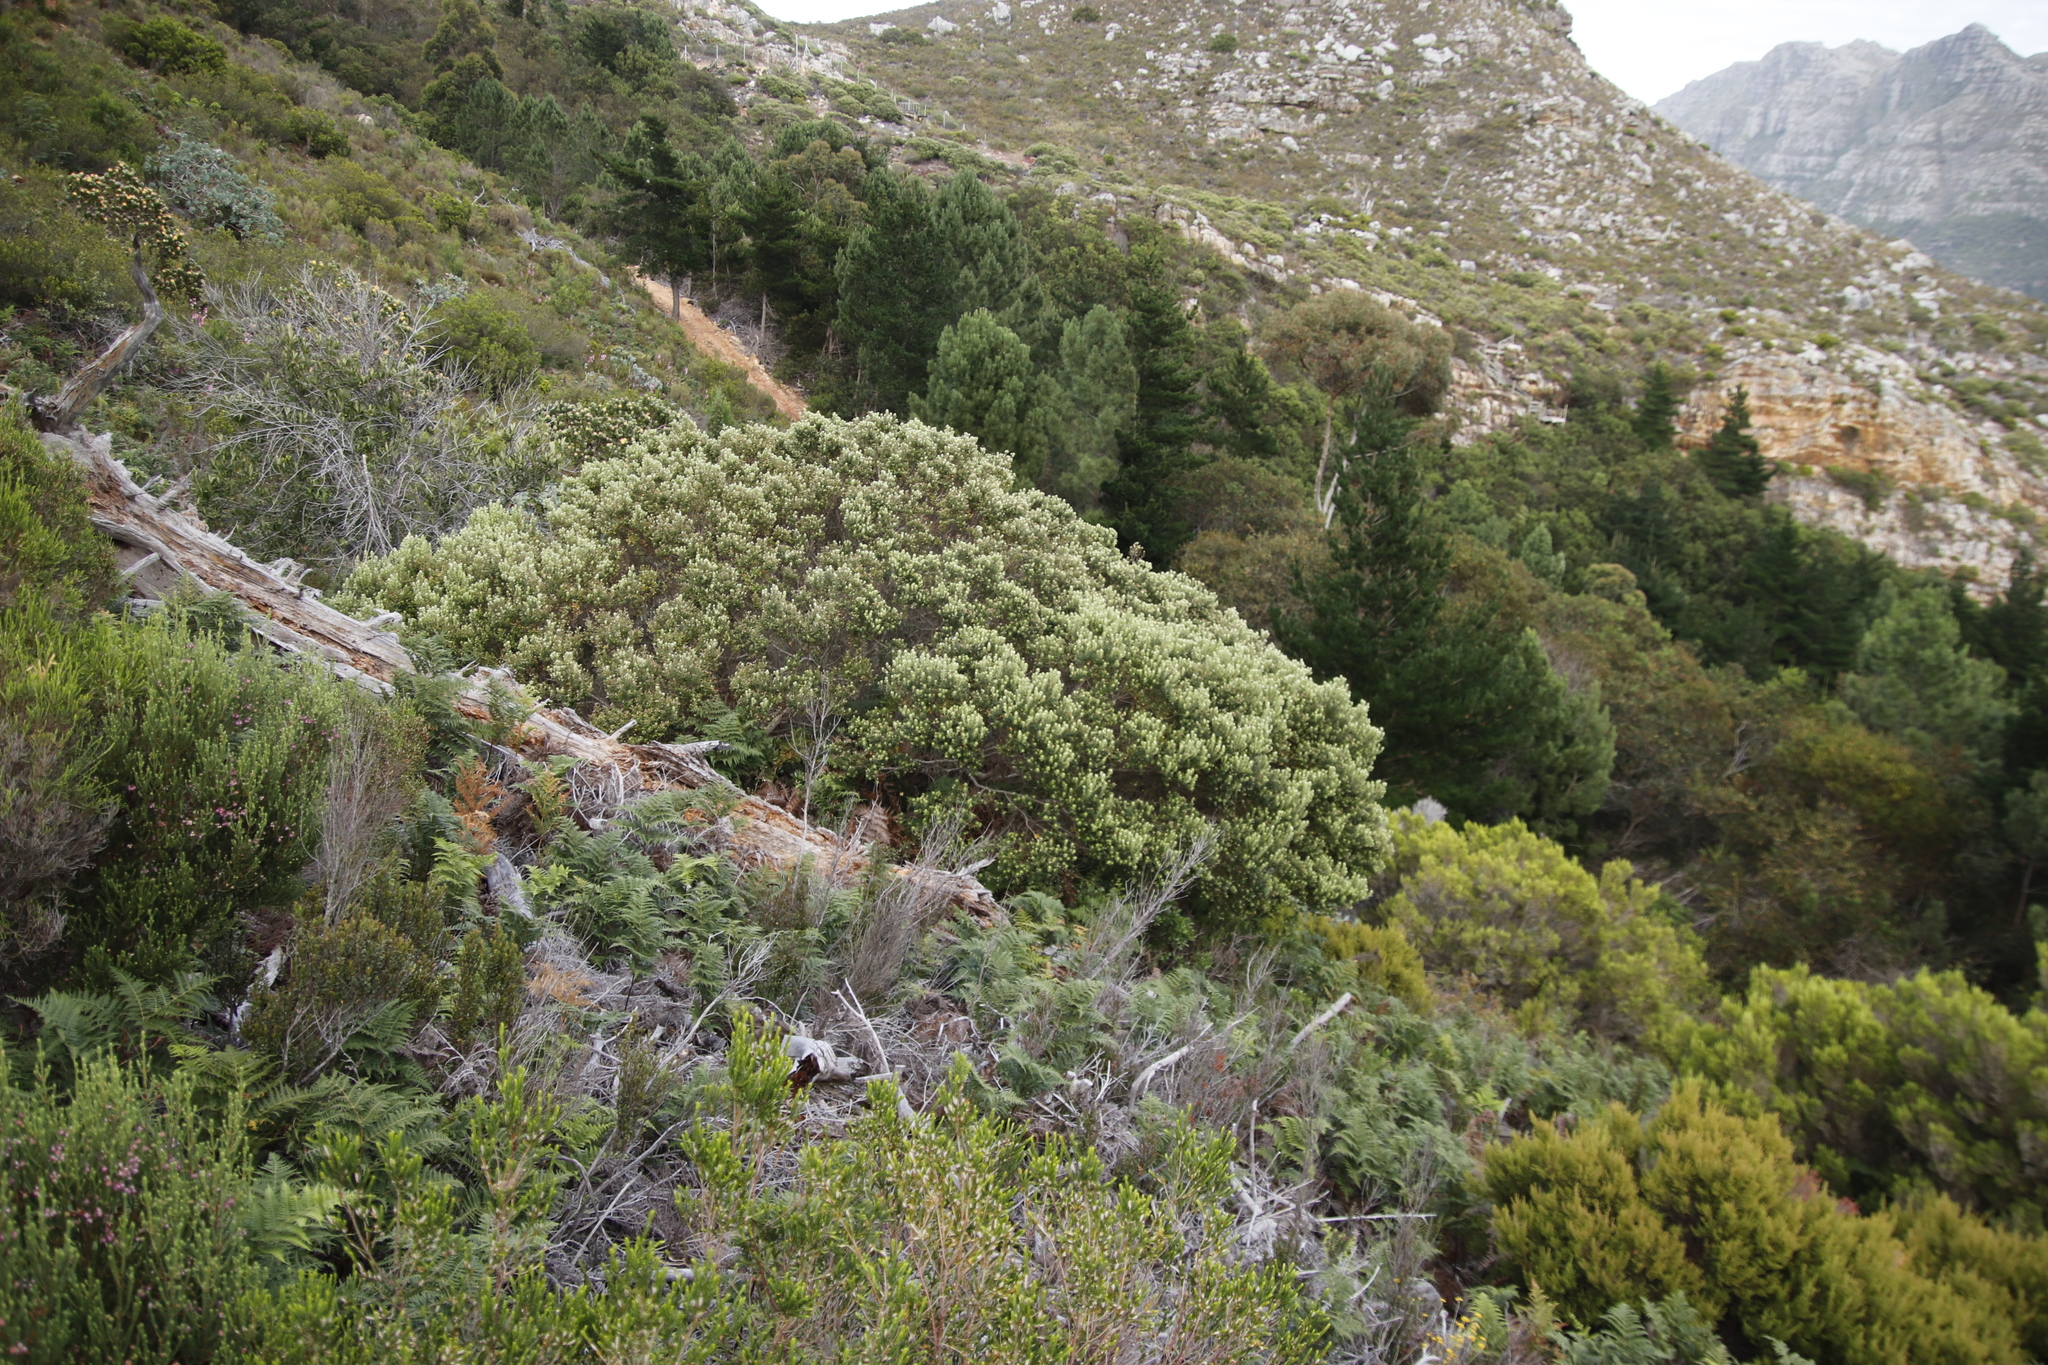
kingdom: Plantae
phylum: Tracheophyta
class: Magnoliopsida
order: Rosales
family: Rhamnaceae
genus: Phylica
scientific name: Phylica buxifolia
